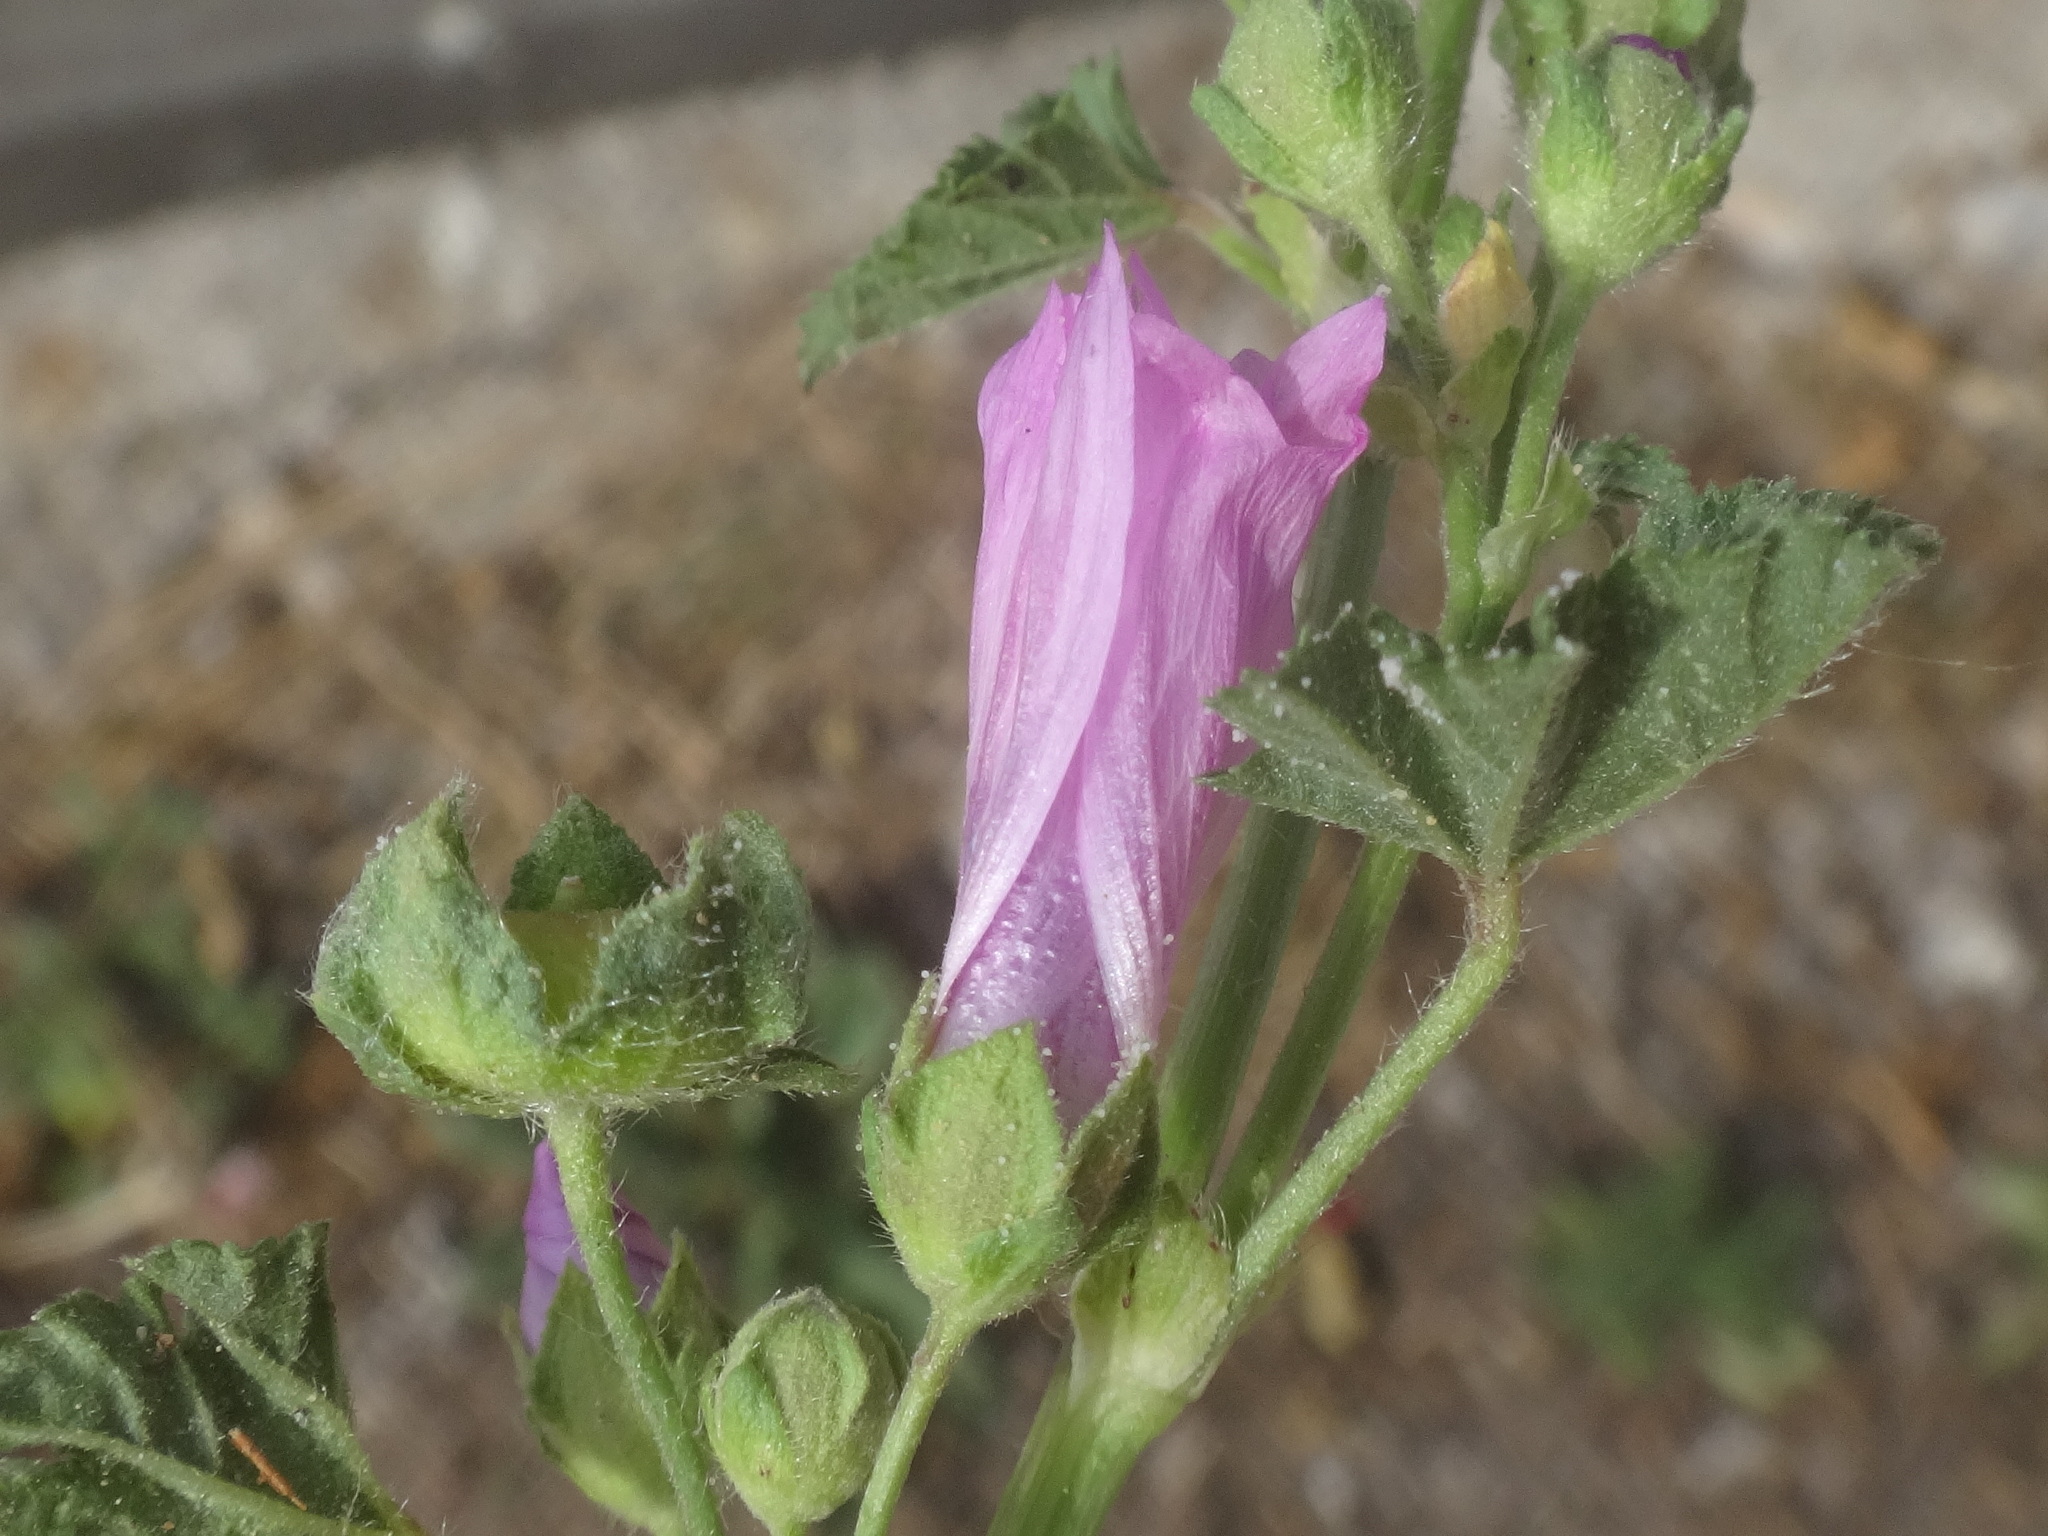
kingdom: Plantae
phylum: Tracheophyta
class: Magnoliopsida
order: Malvales
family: Malvaceae
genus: Malva
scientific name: Malva sylvestris
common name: Common mallow
